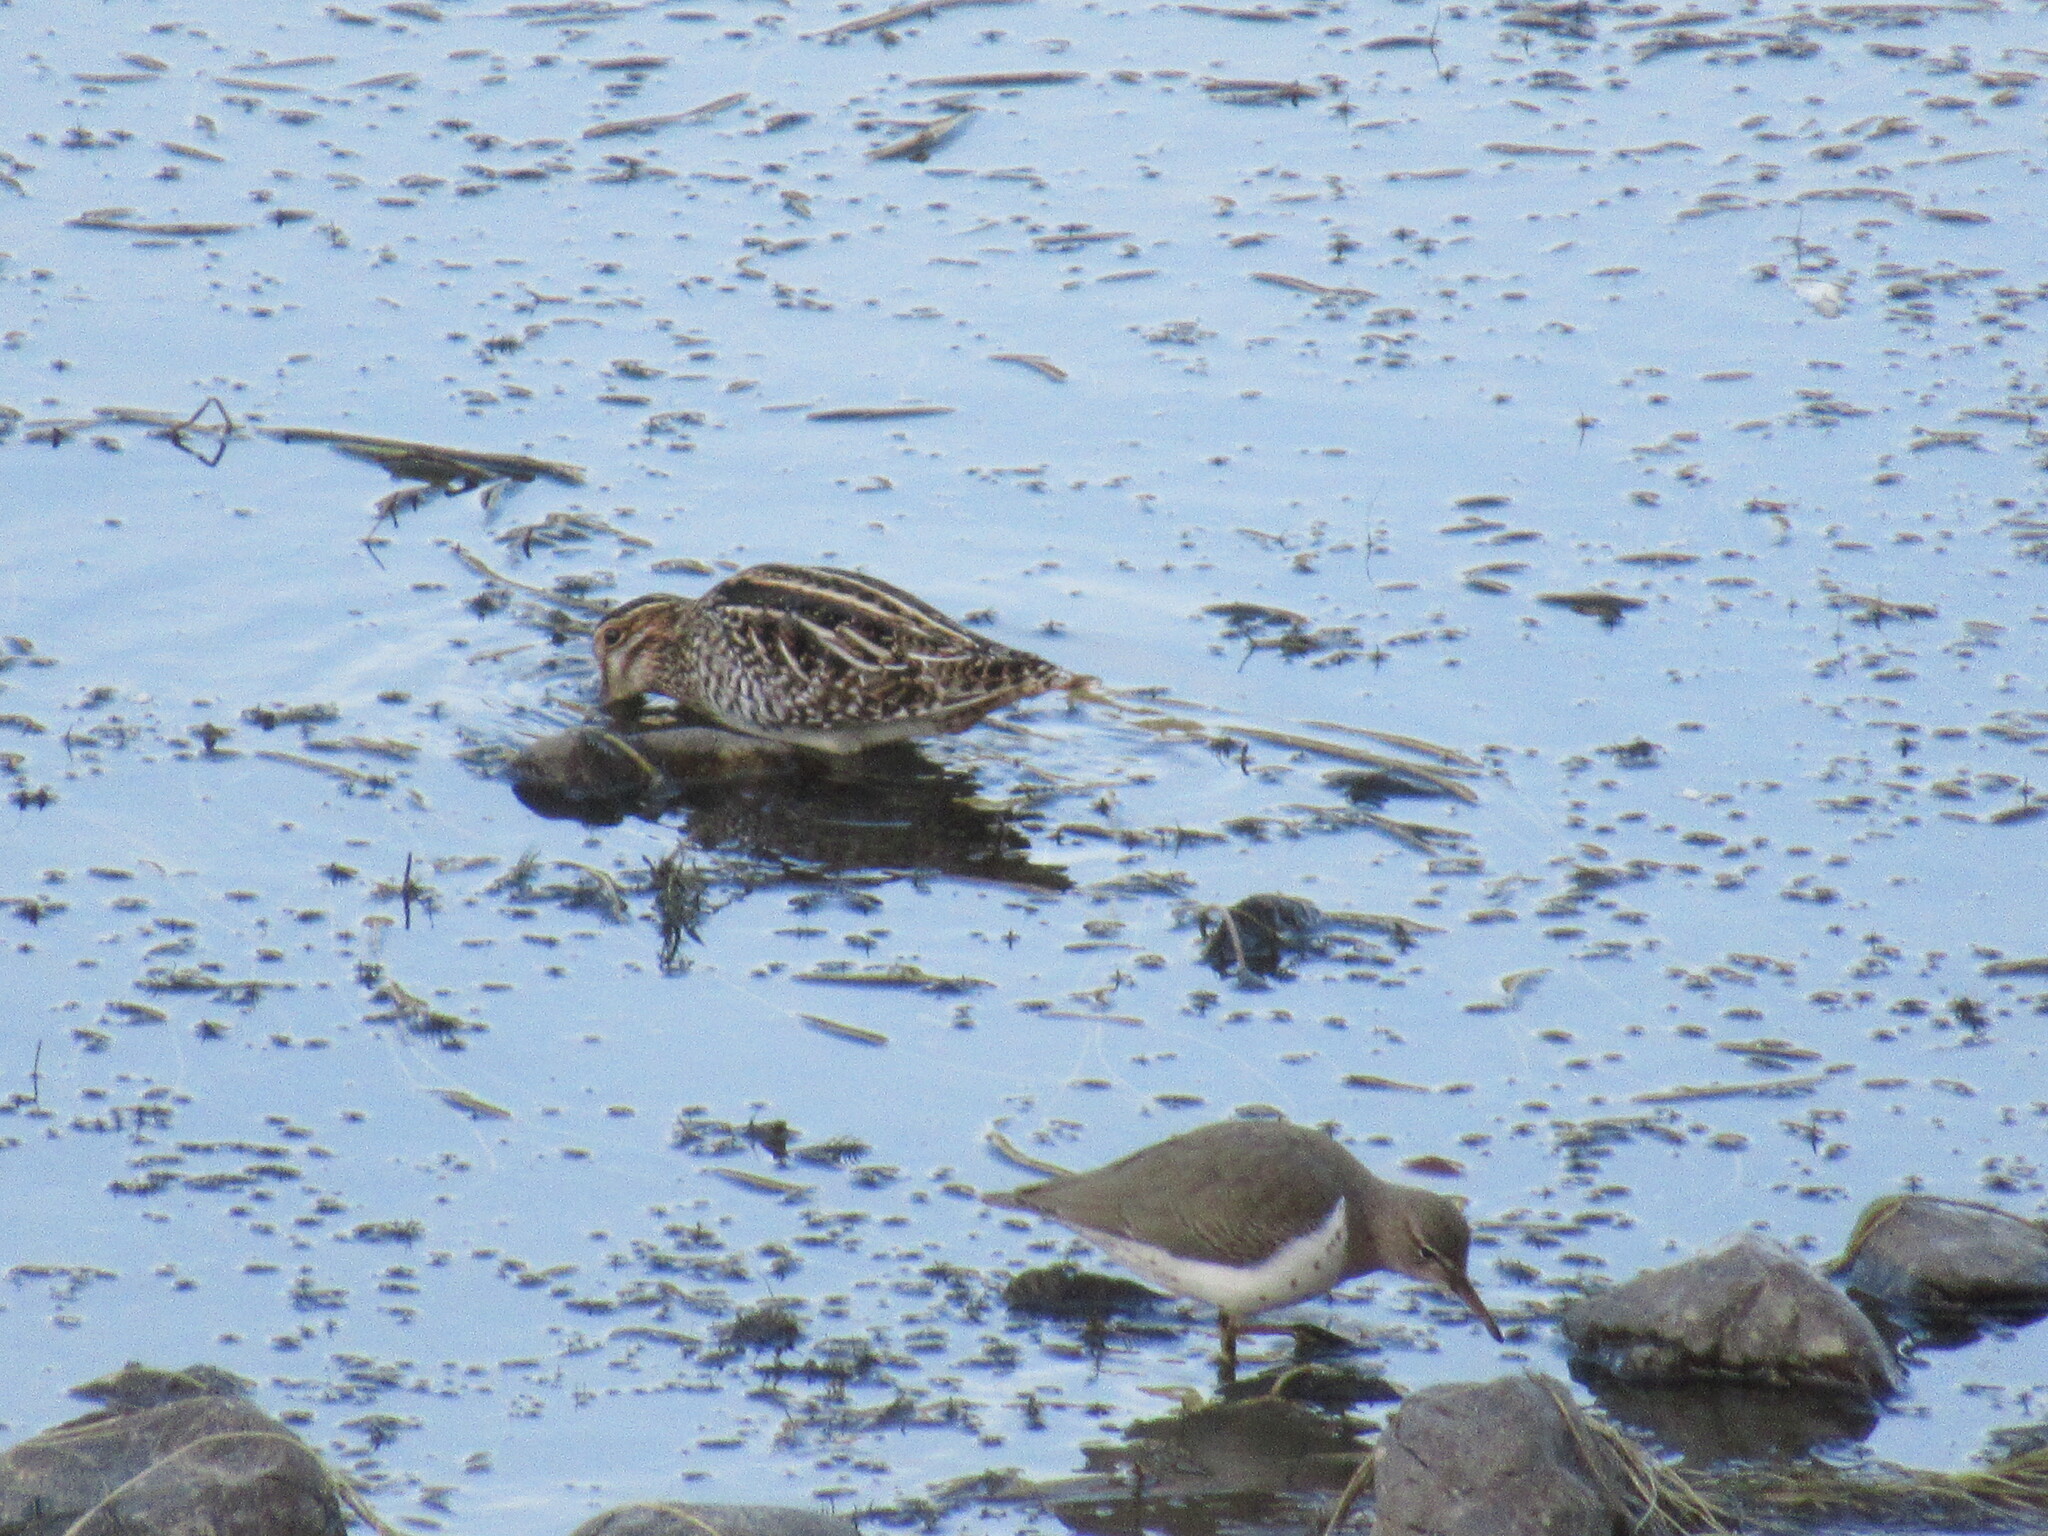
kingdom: Animalia
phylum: Chordata
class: Aves
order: Charadriiformes
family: Scolopacidae
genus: Actitis
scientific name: Actitis macularius
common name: Spotted sandpiper
